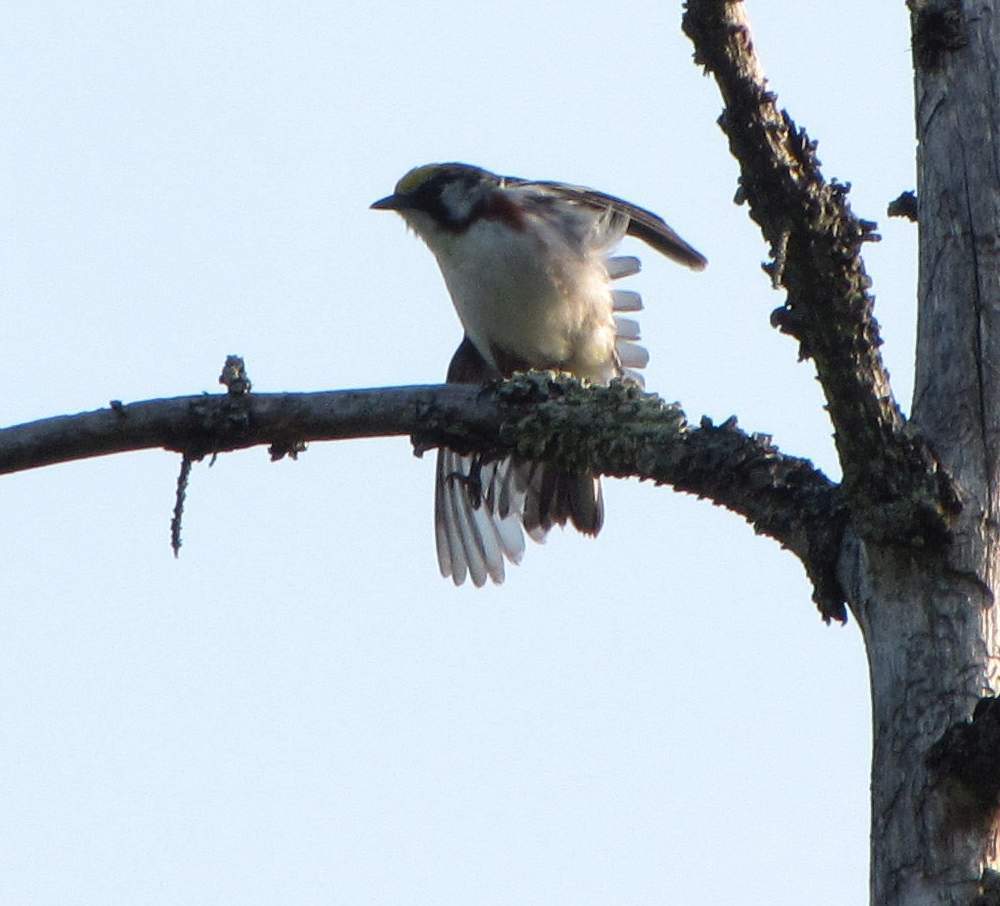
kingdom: Animalia
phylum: Chordata
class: Aves
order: Passeriformes
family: Parulidae
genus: Setophaga
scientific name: Setophaga pensylvanica
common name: Chestnut-sided warbler
